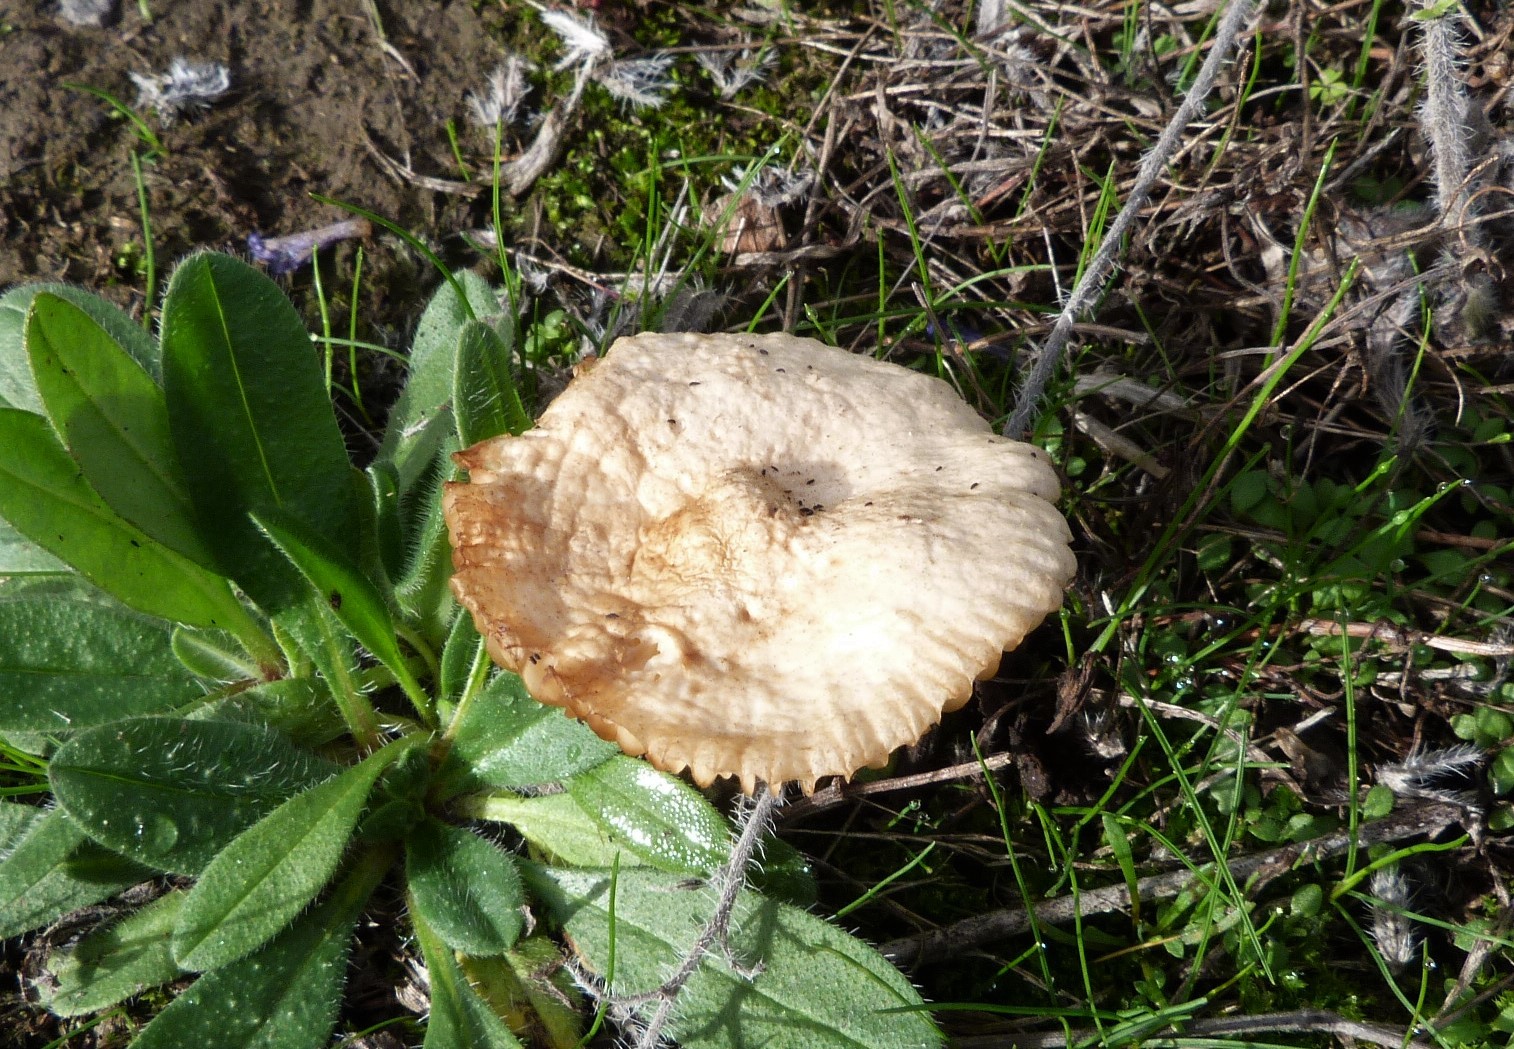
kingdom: Fungi
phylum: Basidiomycota
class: Agaricomycetes
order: Agaricales
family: Marasmiaceae
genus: Marasmius
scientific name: Marasmius oreades
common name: Fairy ring champignon
